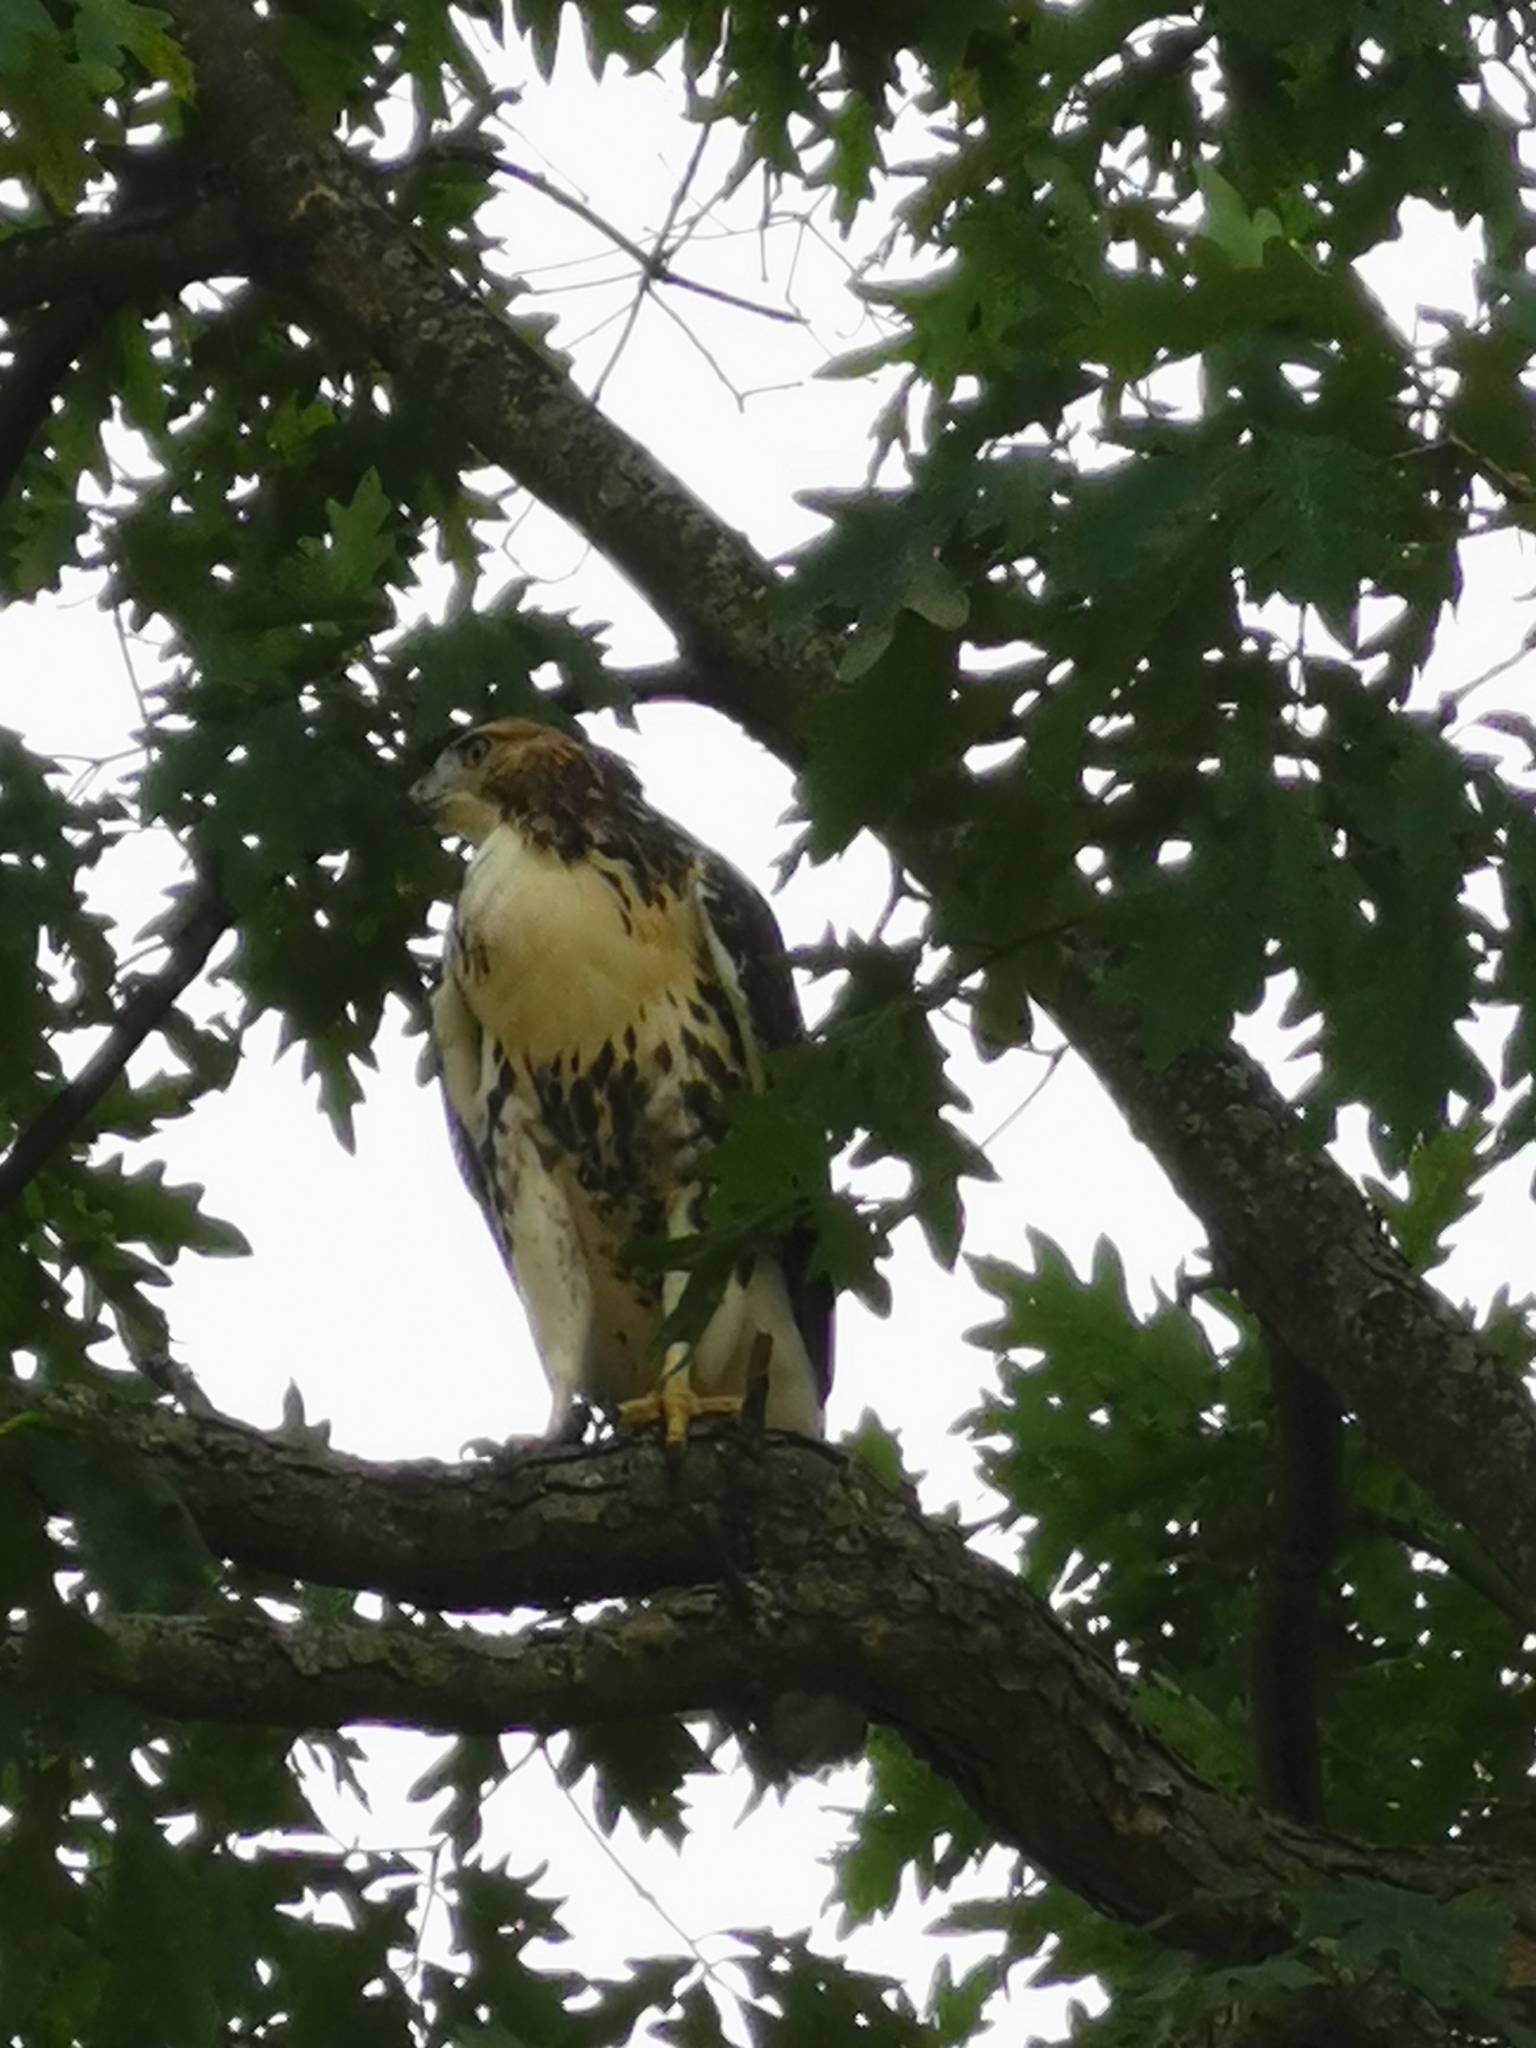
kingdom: Animalia
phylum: Chordata
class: Aves
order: Accipitriformes
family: Accipitridae
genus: Buteo
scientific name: Buteo jamaicensis
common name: Red-tailed hawk
